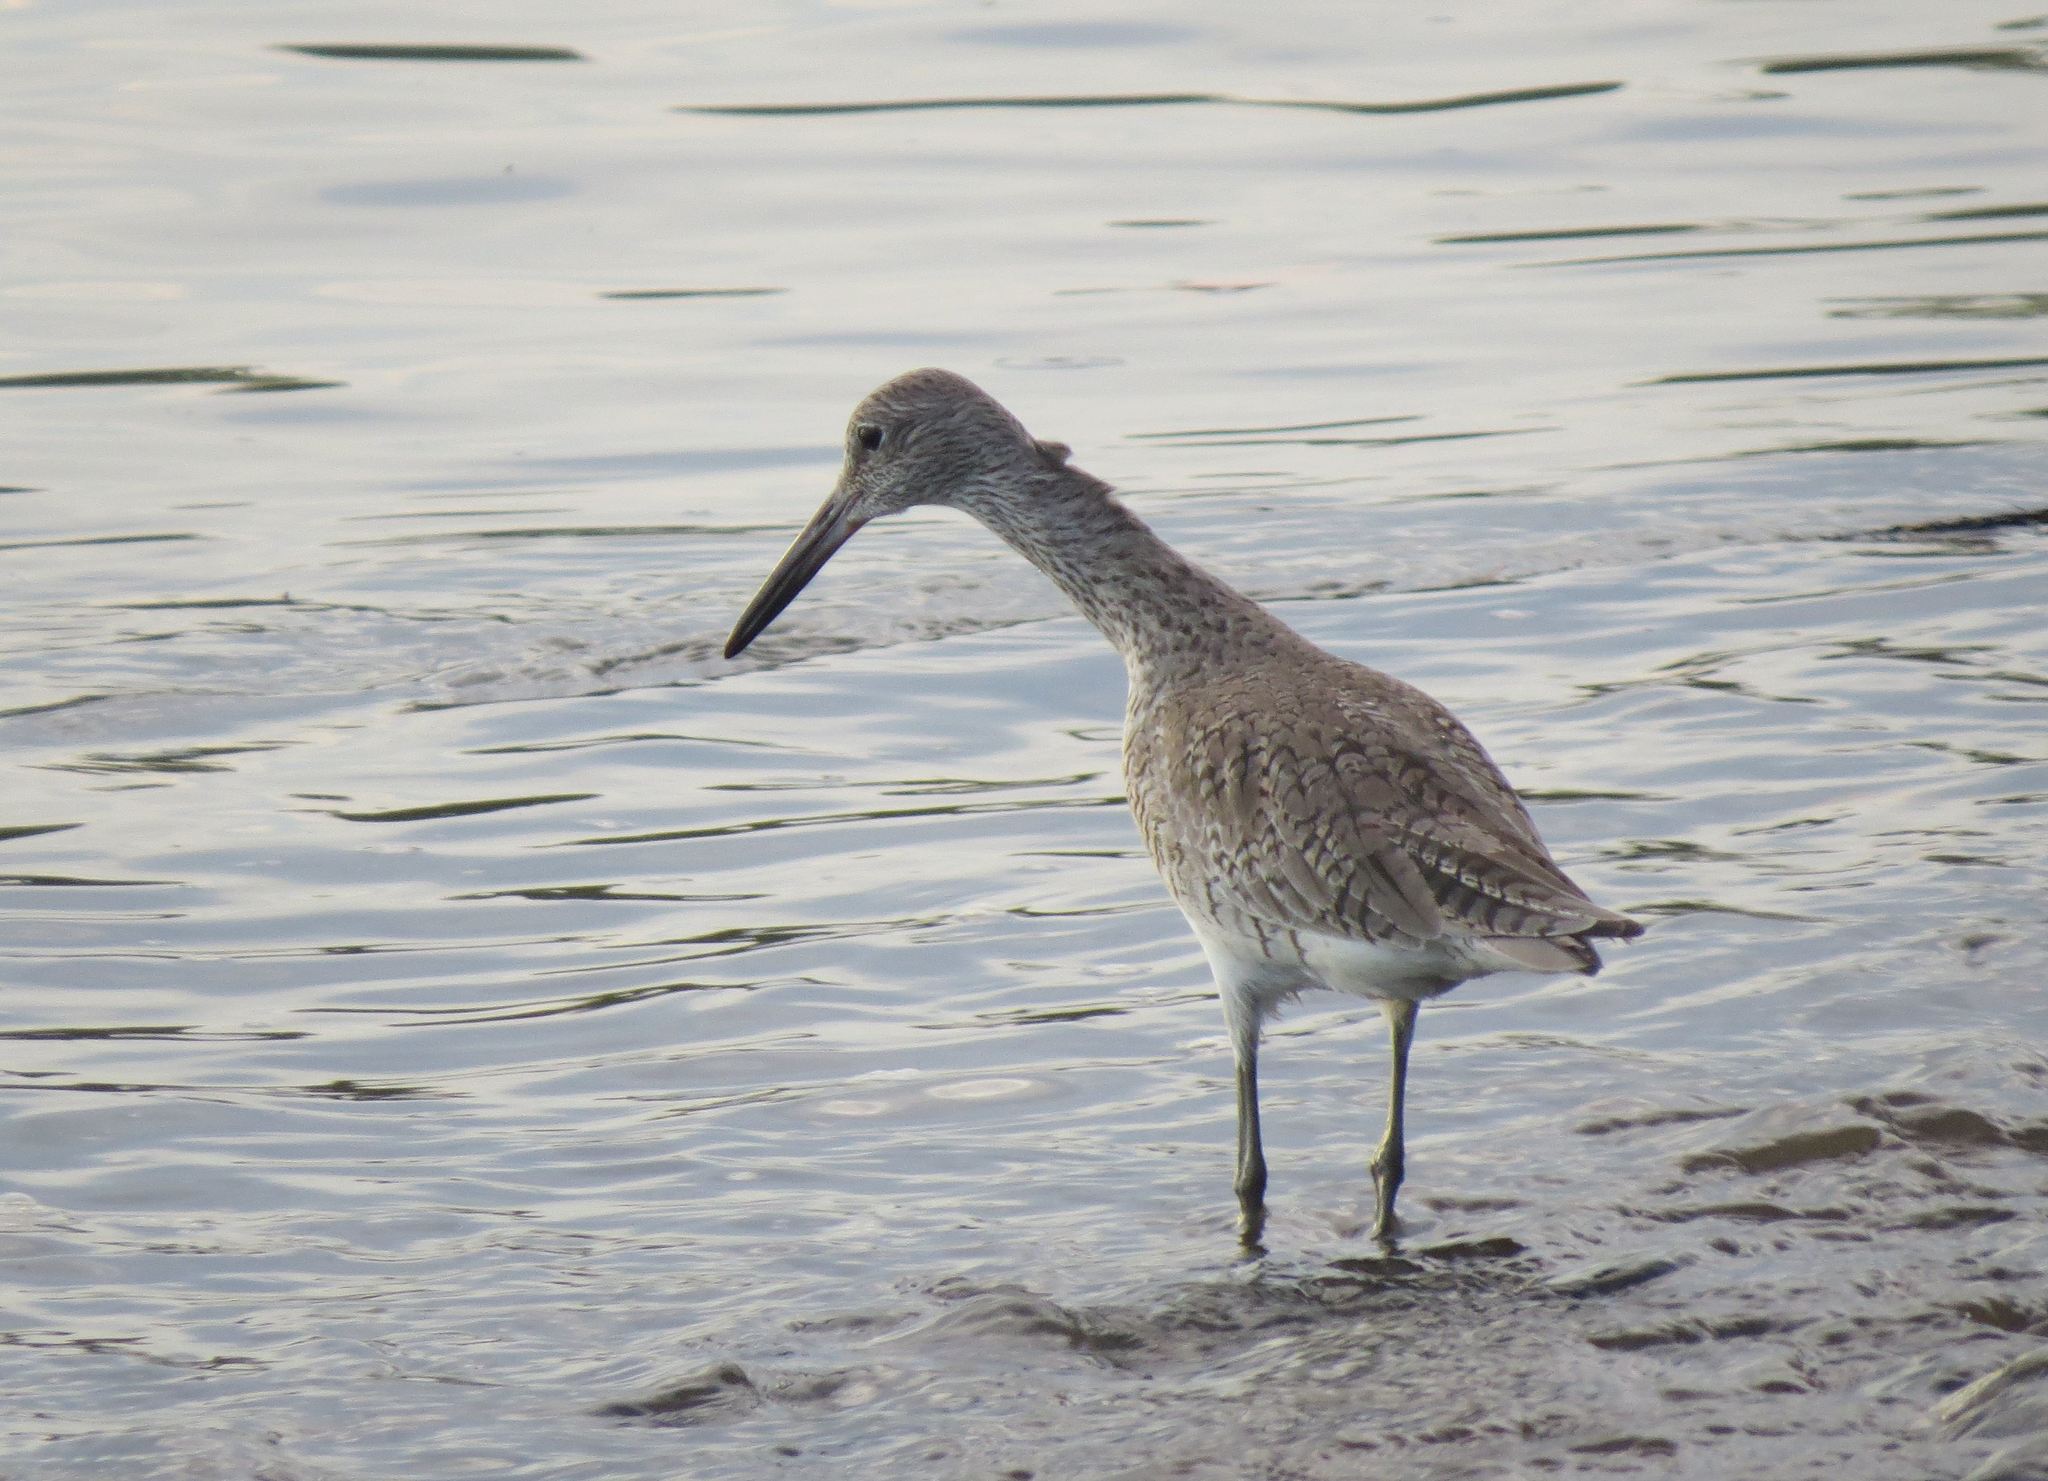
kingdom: Animalia
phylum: Chordata
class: Aves
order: Charadriiformes
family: Scolopacidae
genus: Tringa
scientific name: Tringa semipalmata
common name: Willet
